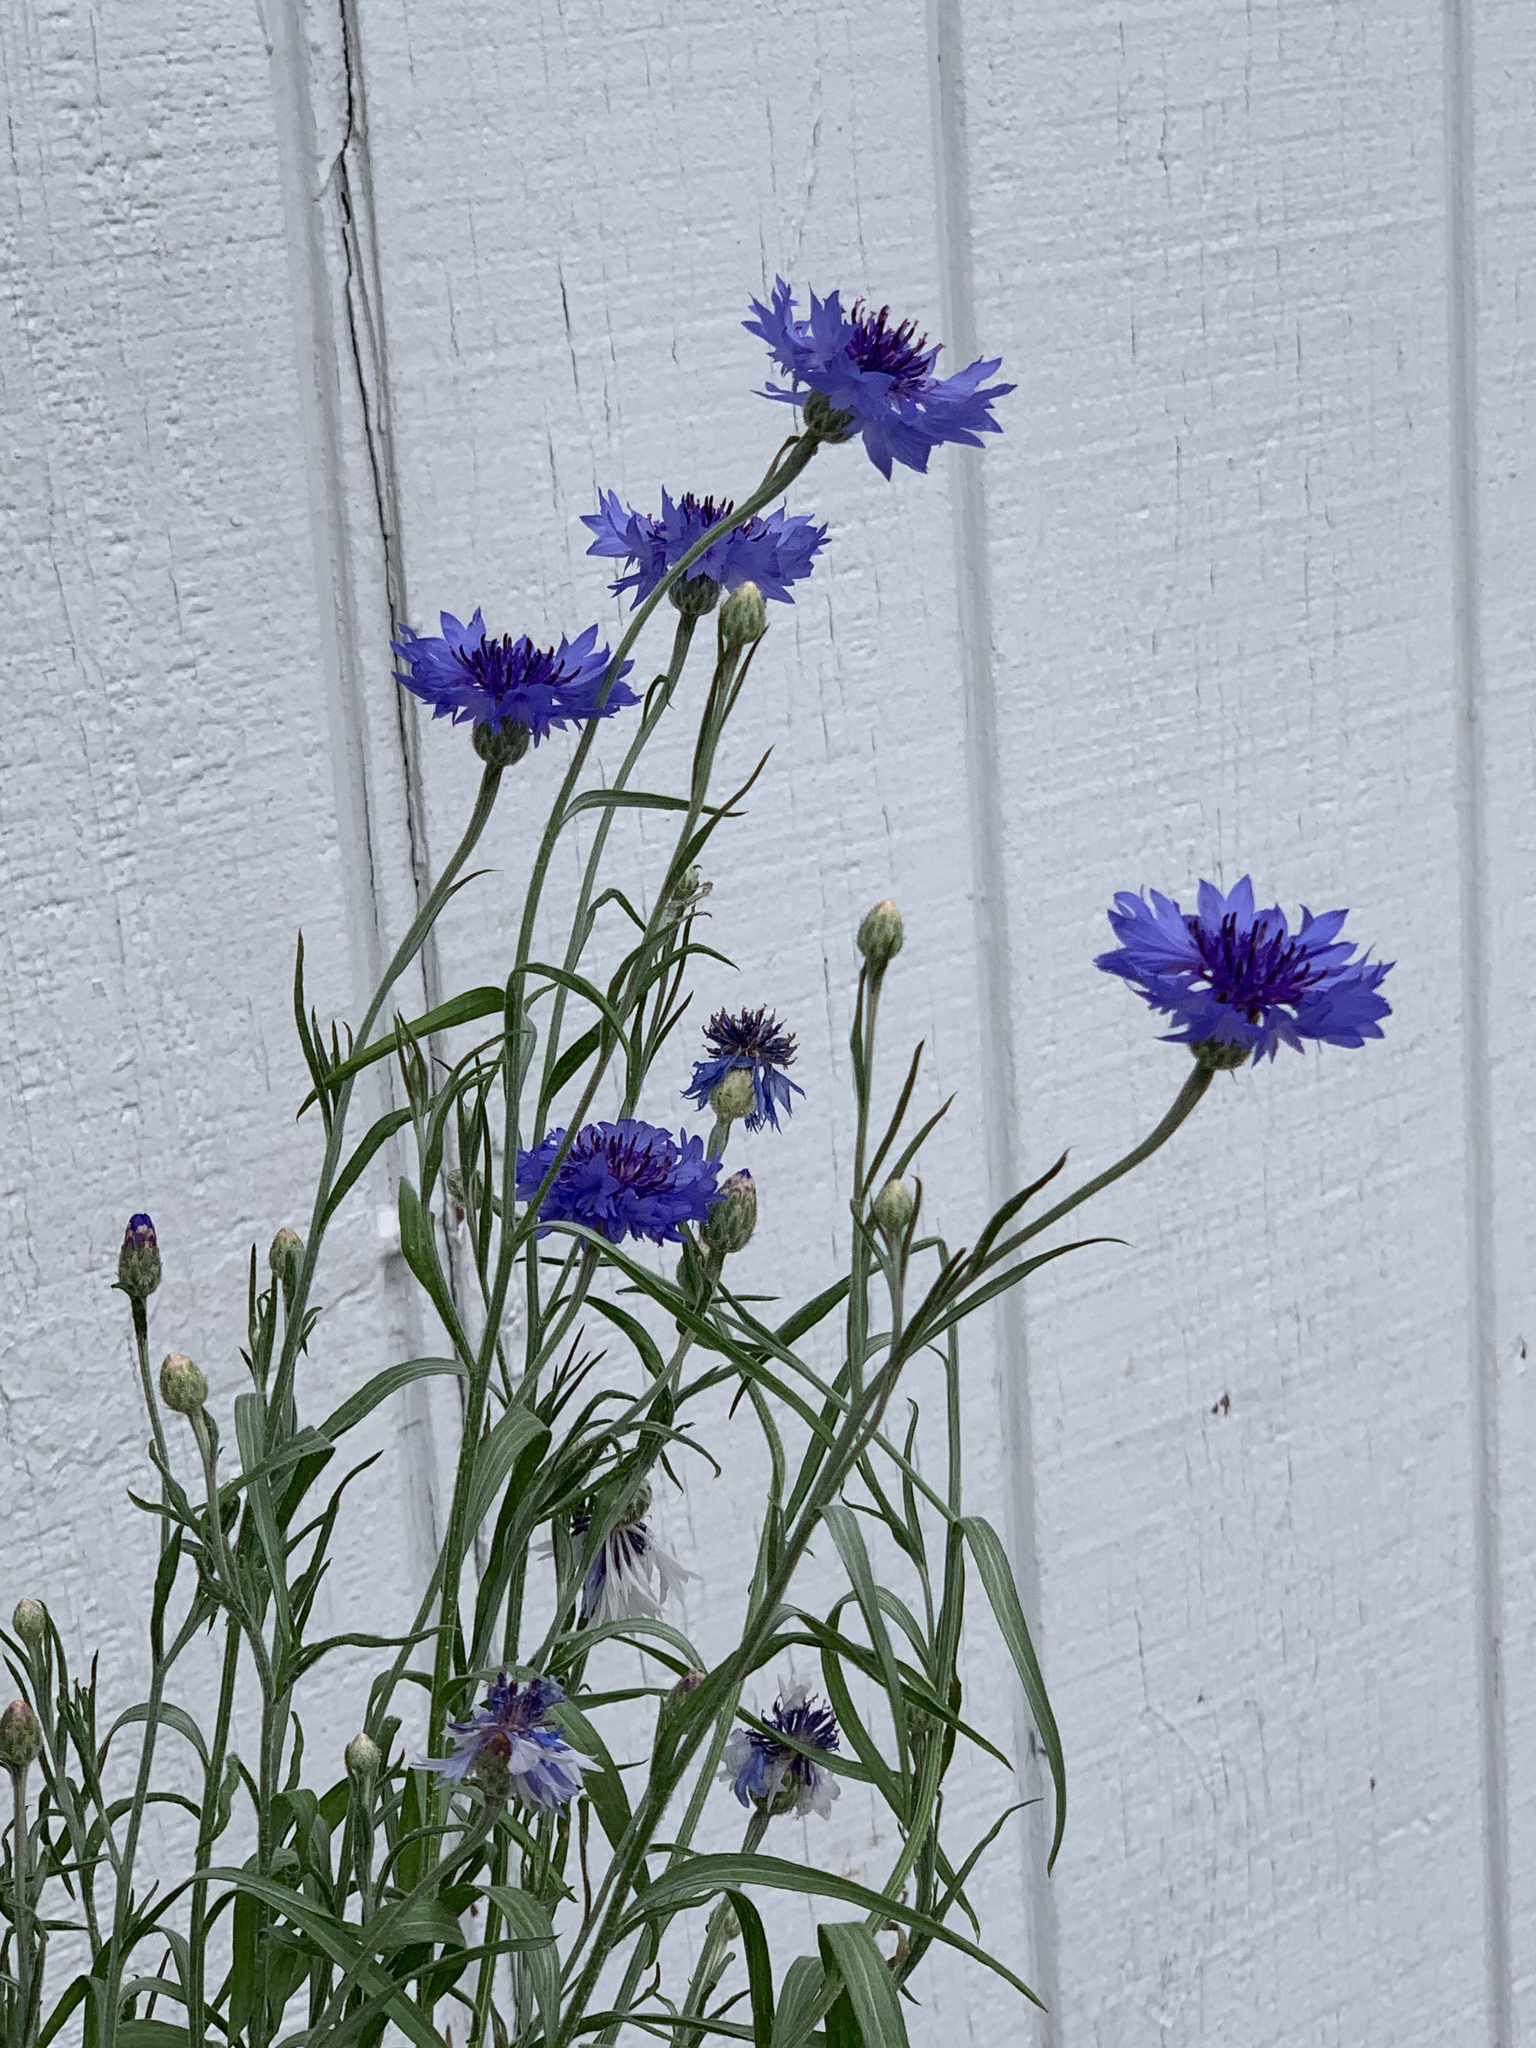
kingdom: Plantae
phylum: Tracheophyta
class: Magnoliopsida
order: Asterales
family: Asteraceae
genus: Centaurea
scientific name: Centaurea cyanus
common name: Cornflower
